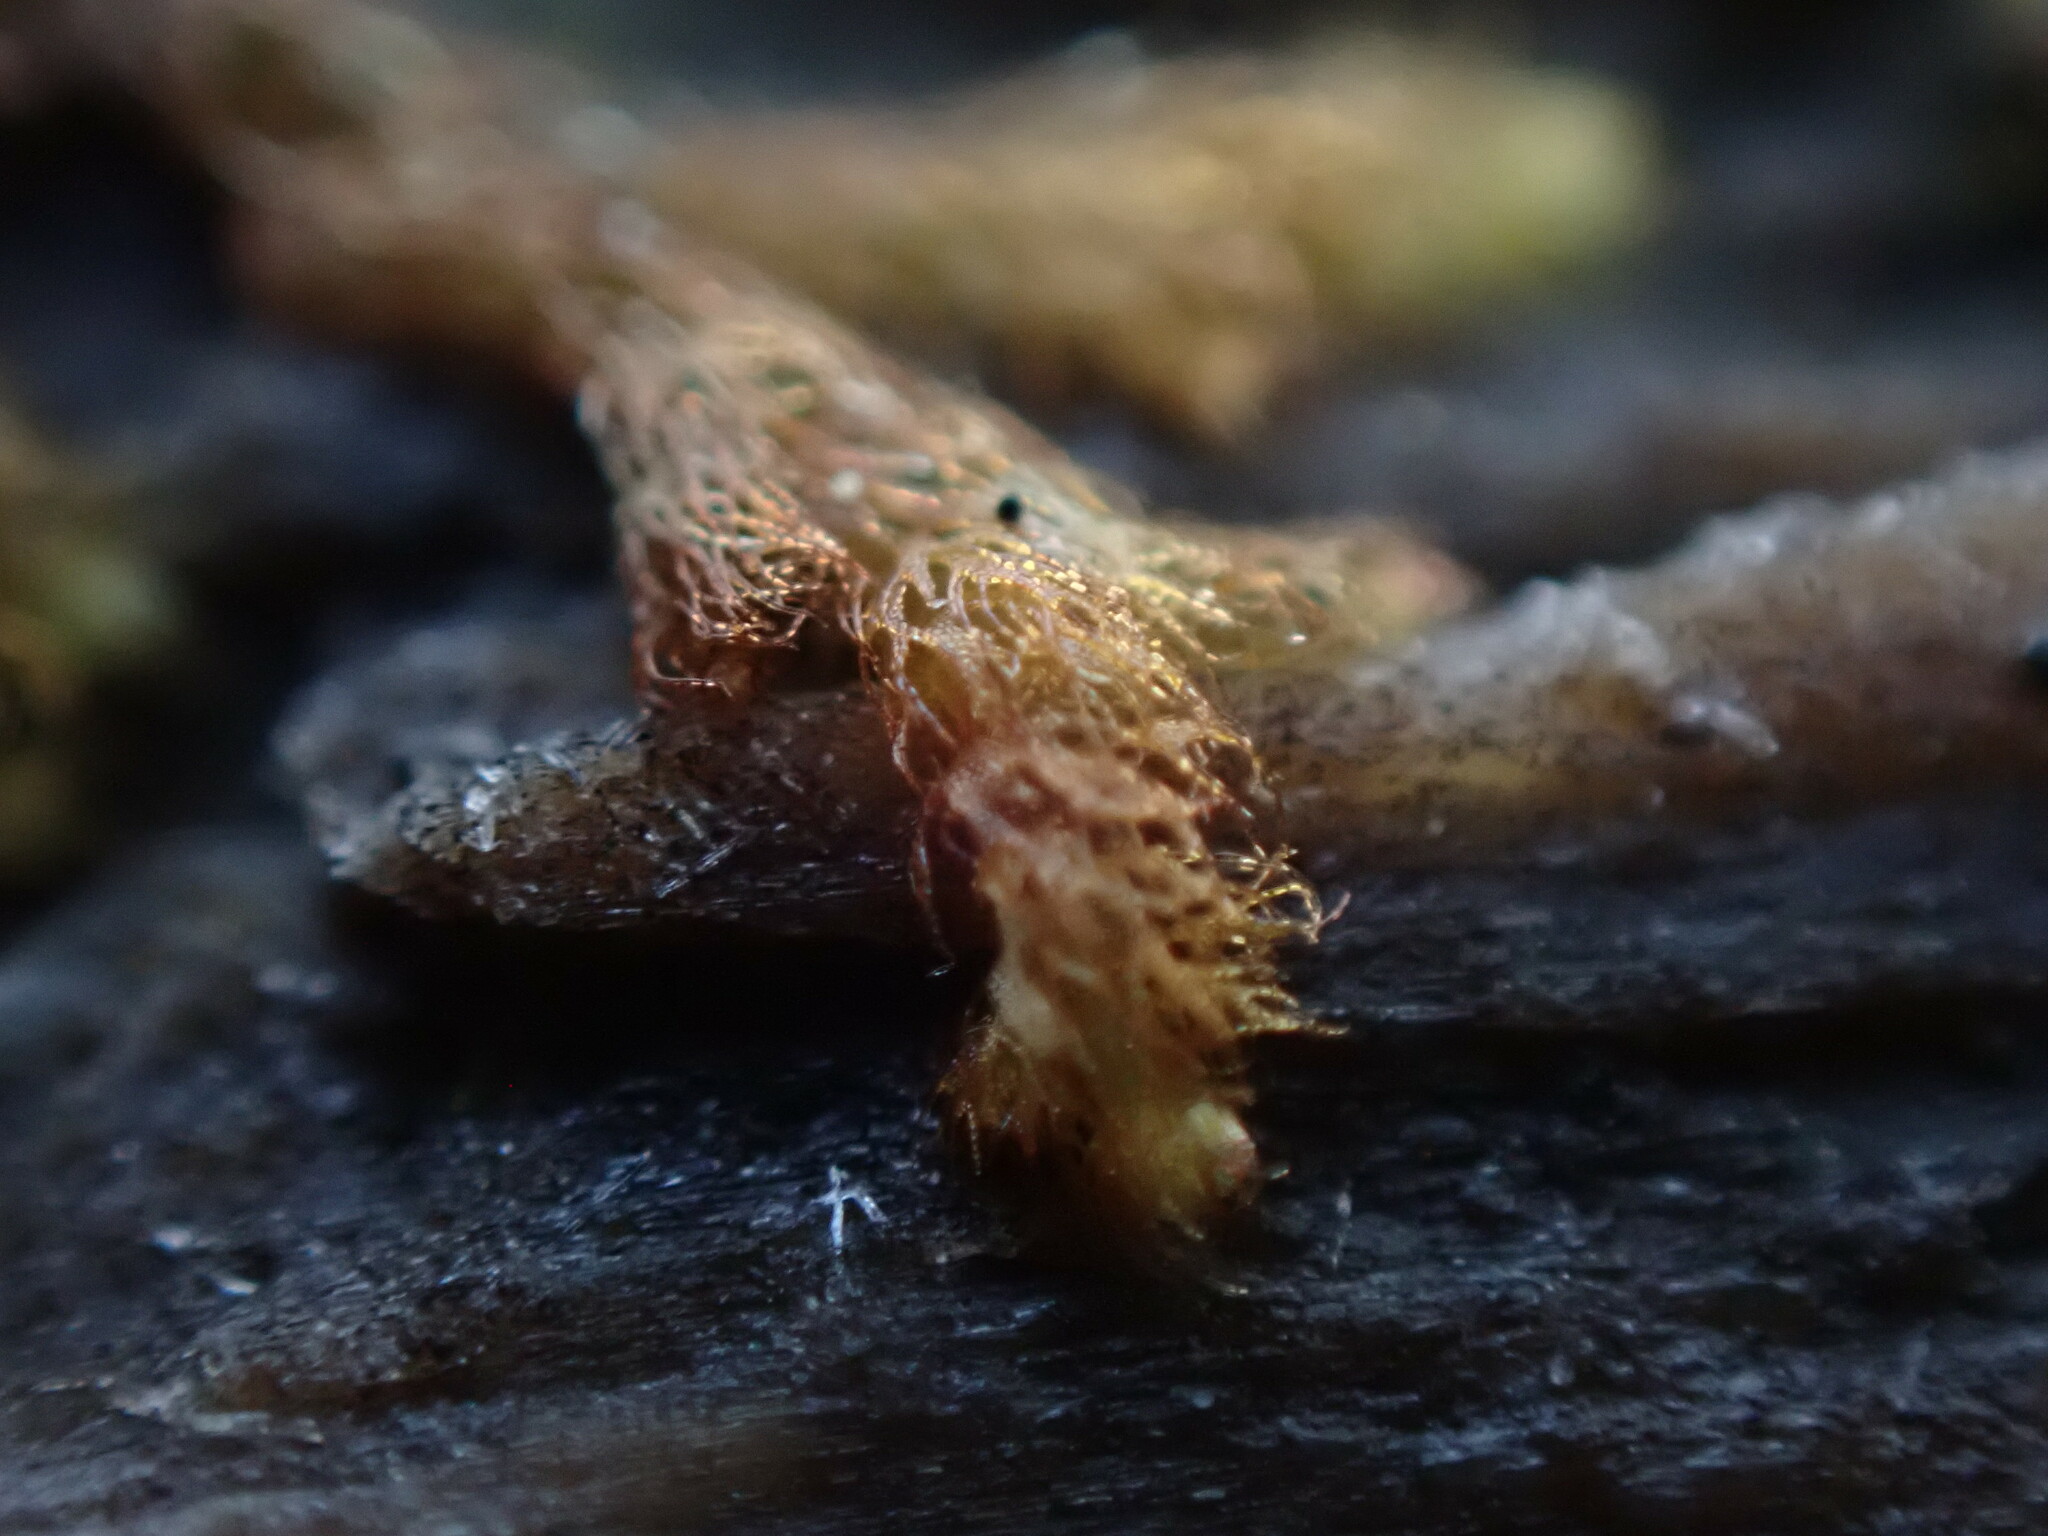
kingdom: Plantae
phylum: Marchantiophyta
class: Jungermanniopsida
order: Ptilidiales
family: Ptilidiaceae
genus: Ptilidium
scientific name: Ptilidium californicum
